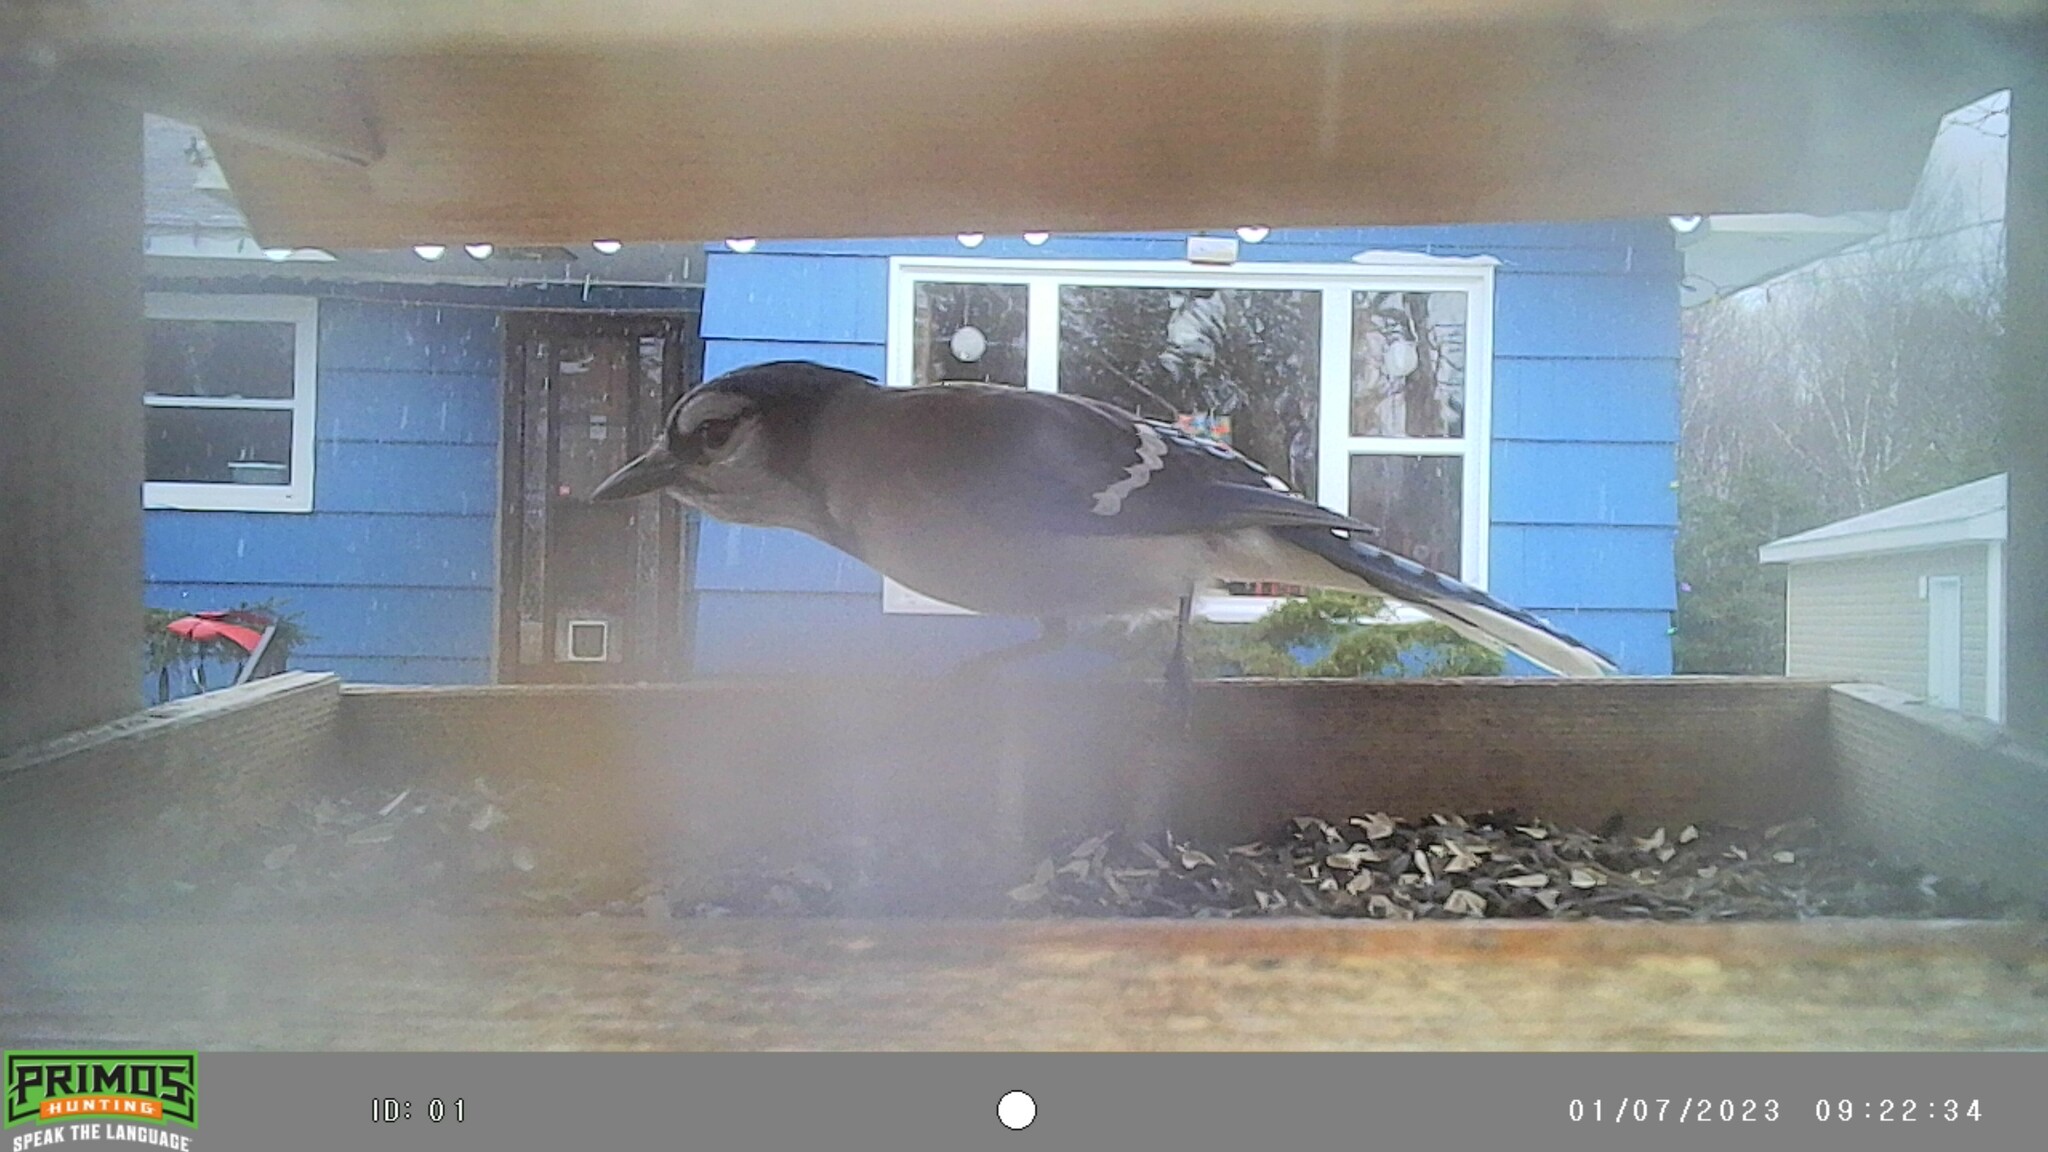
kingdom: Animalia
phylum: Chordata
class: Aves
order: Passeriformes
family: Corvidae
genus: Cyanocitta
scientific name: Cyanocitta cristata
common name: Blue jay
